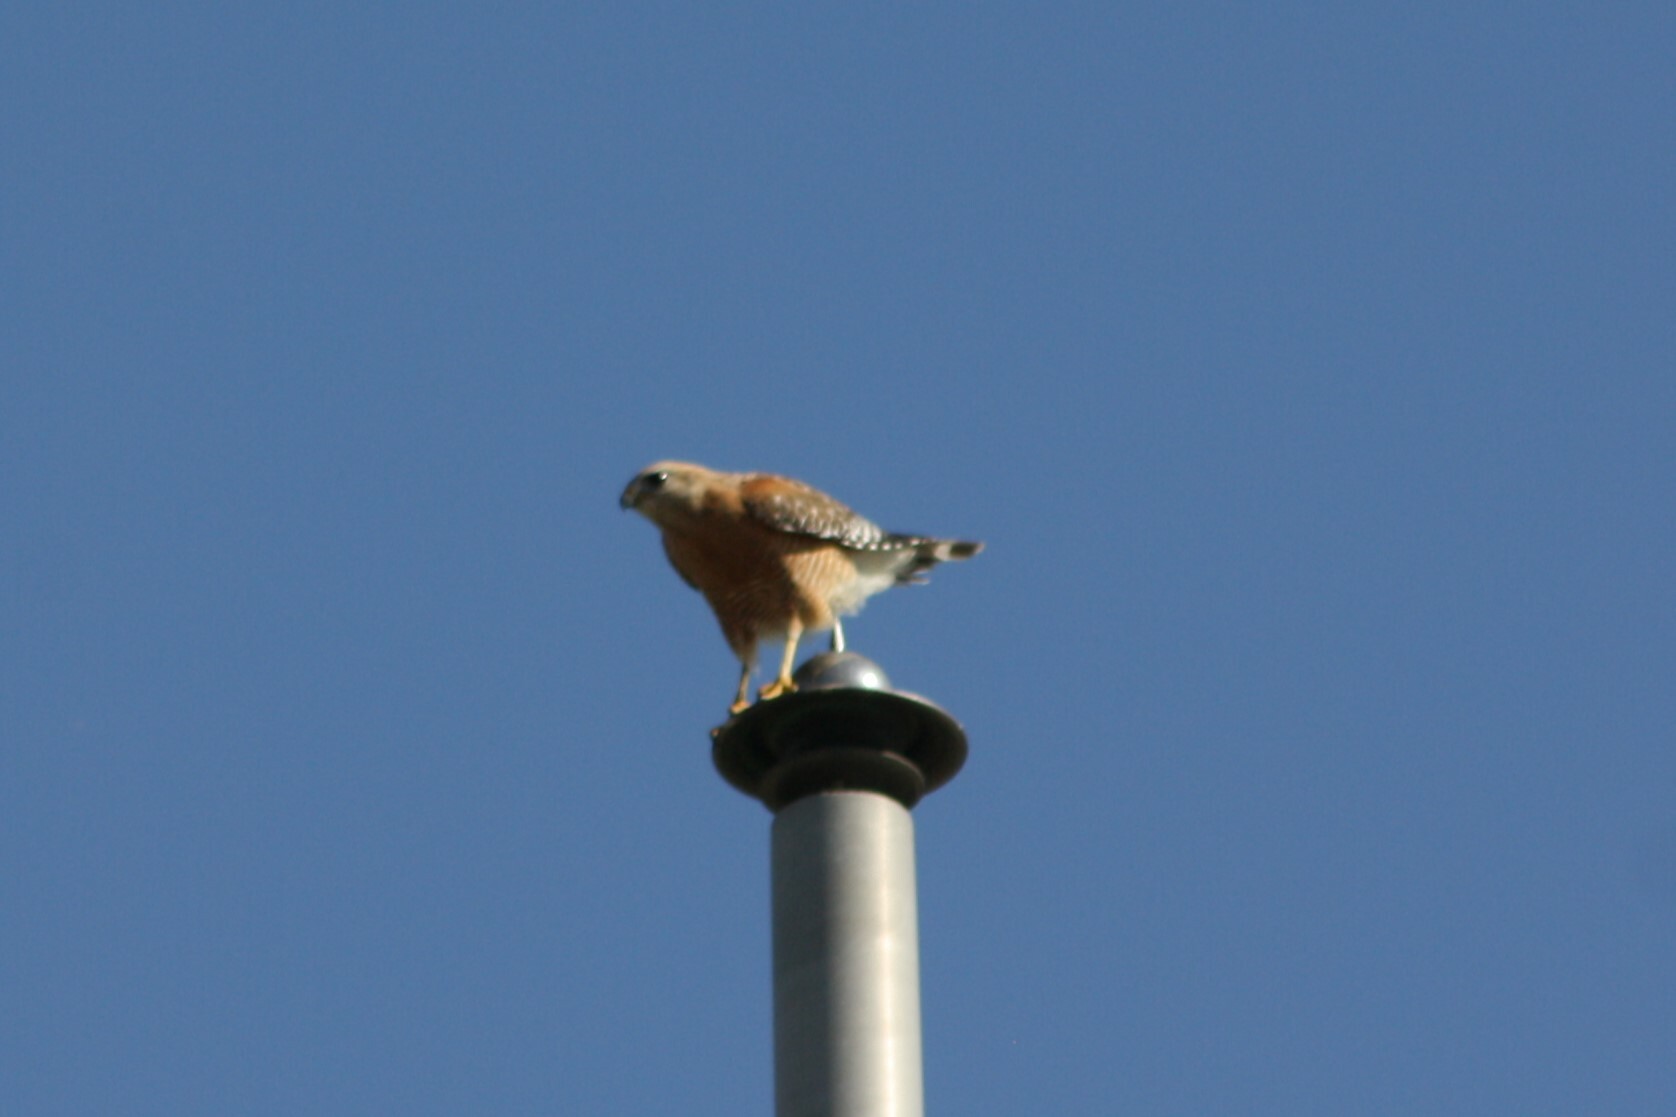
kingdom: Animalia
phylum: Chordata
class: Aves
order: Accipitriformes
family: Accipitridae
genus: Buteo
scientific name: Buteo lineatus
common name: Red-shouldered hawk
